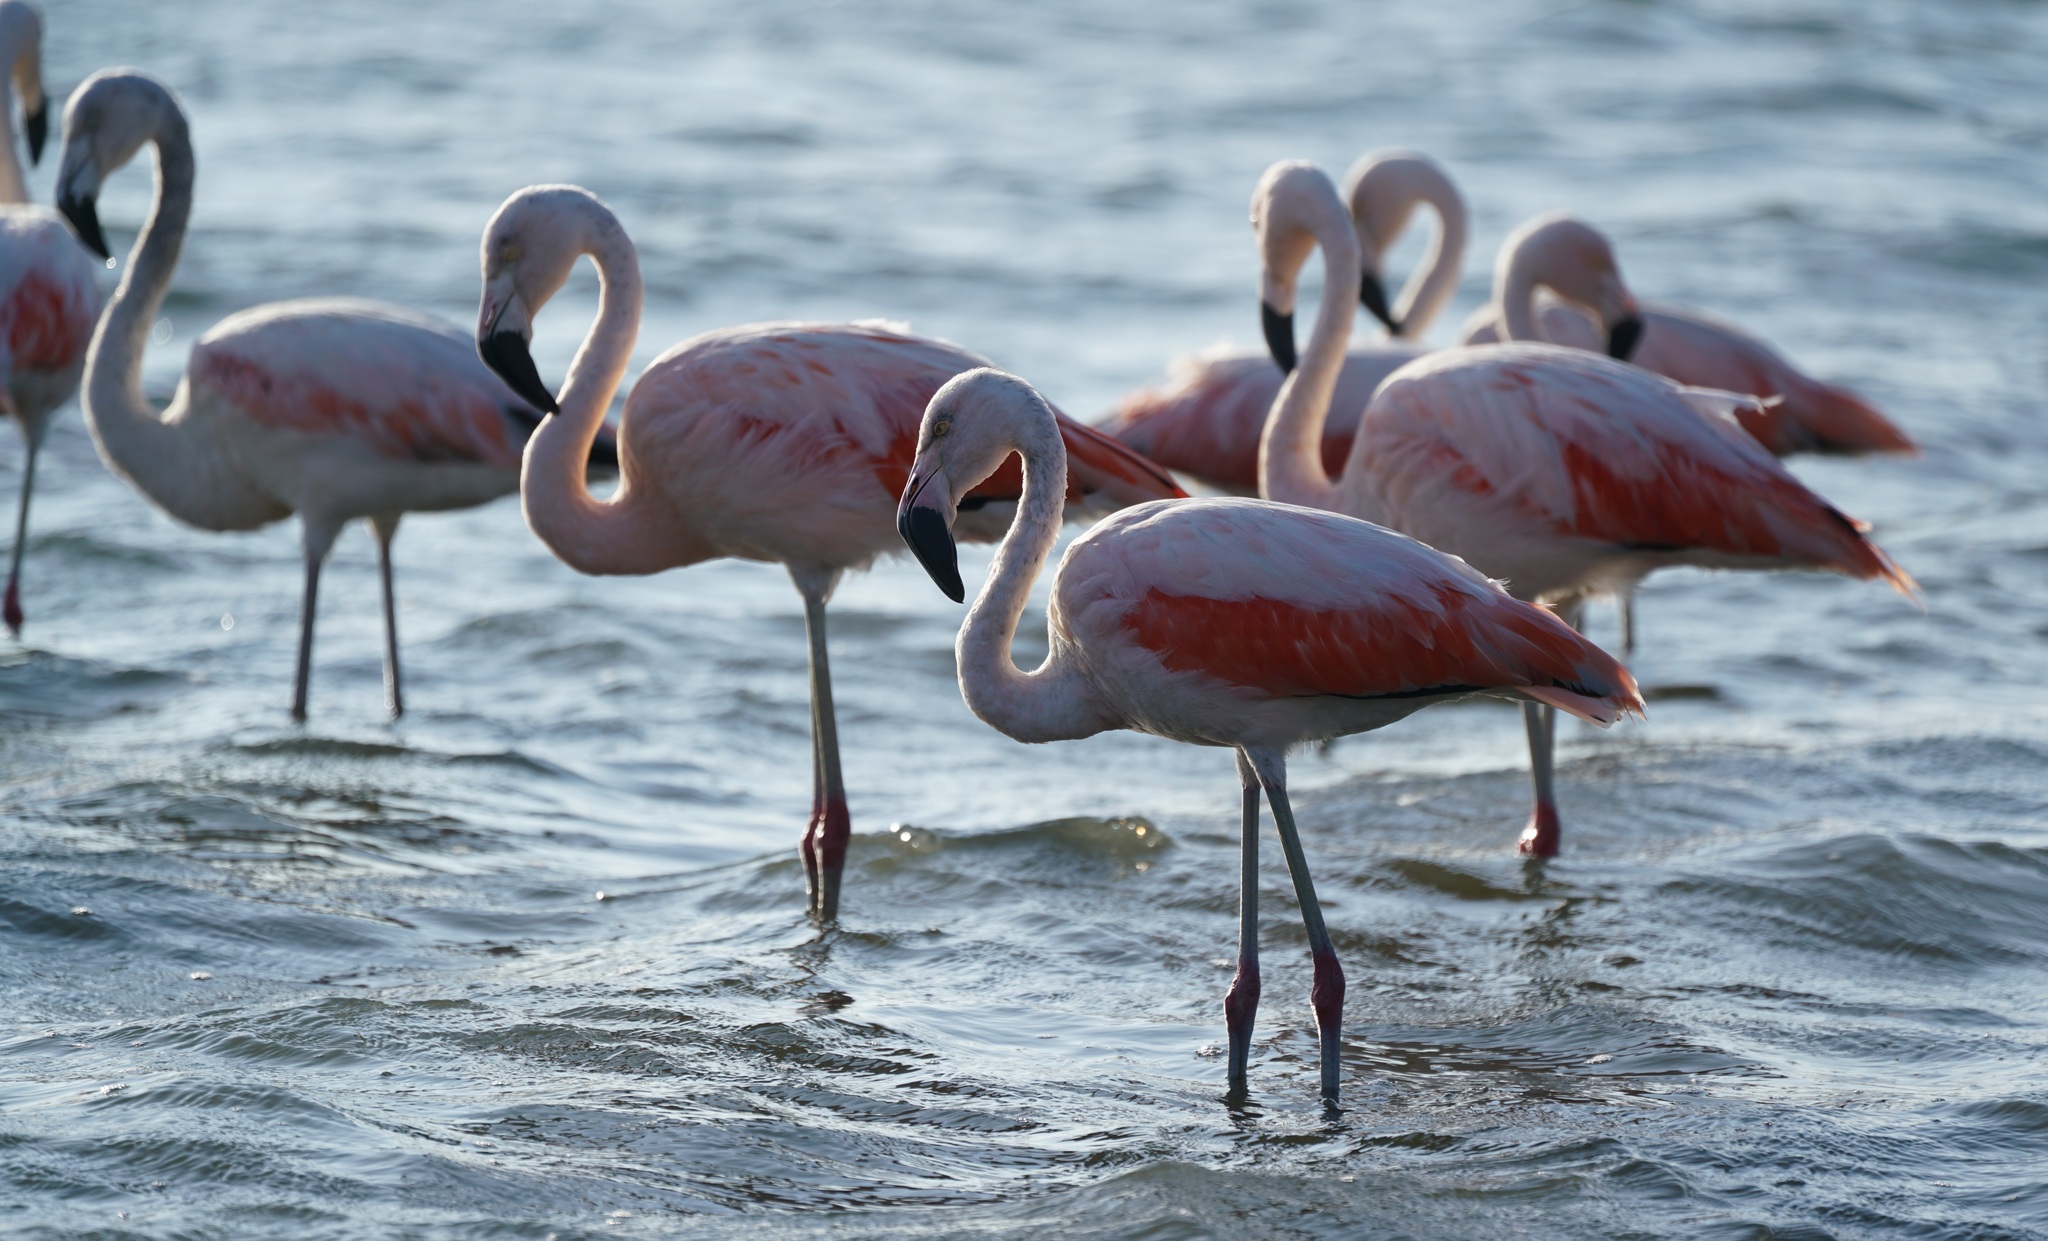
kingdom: Animalia
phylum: Chordata
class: Aves
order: Phoenicopteriformes
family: Phoenicopteridae
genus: Phoenicopterus
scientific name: Phoenicopterus chilensis
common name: Chilean flamingo
